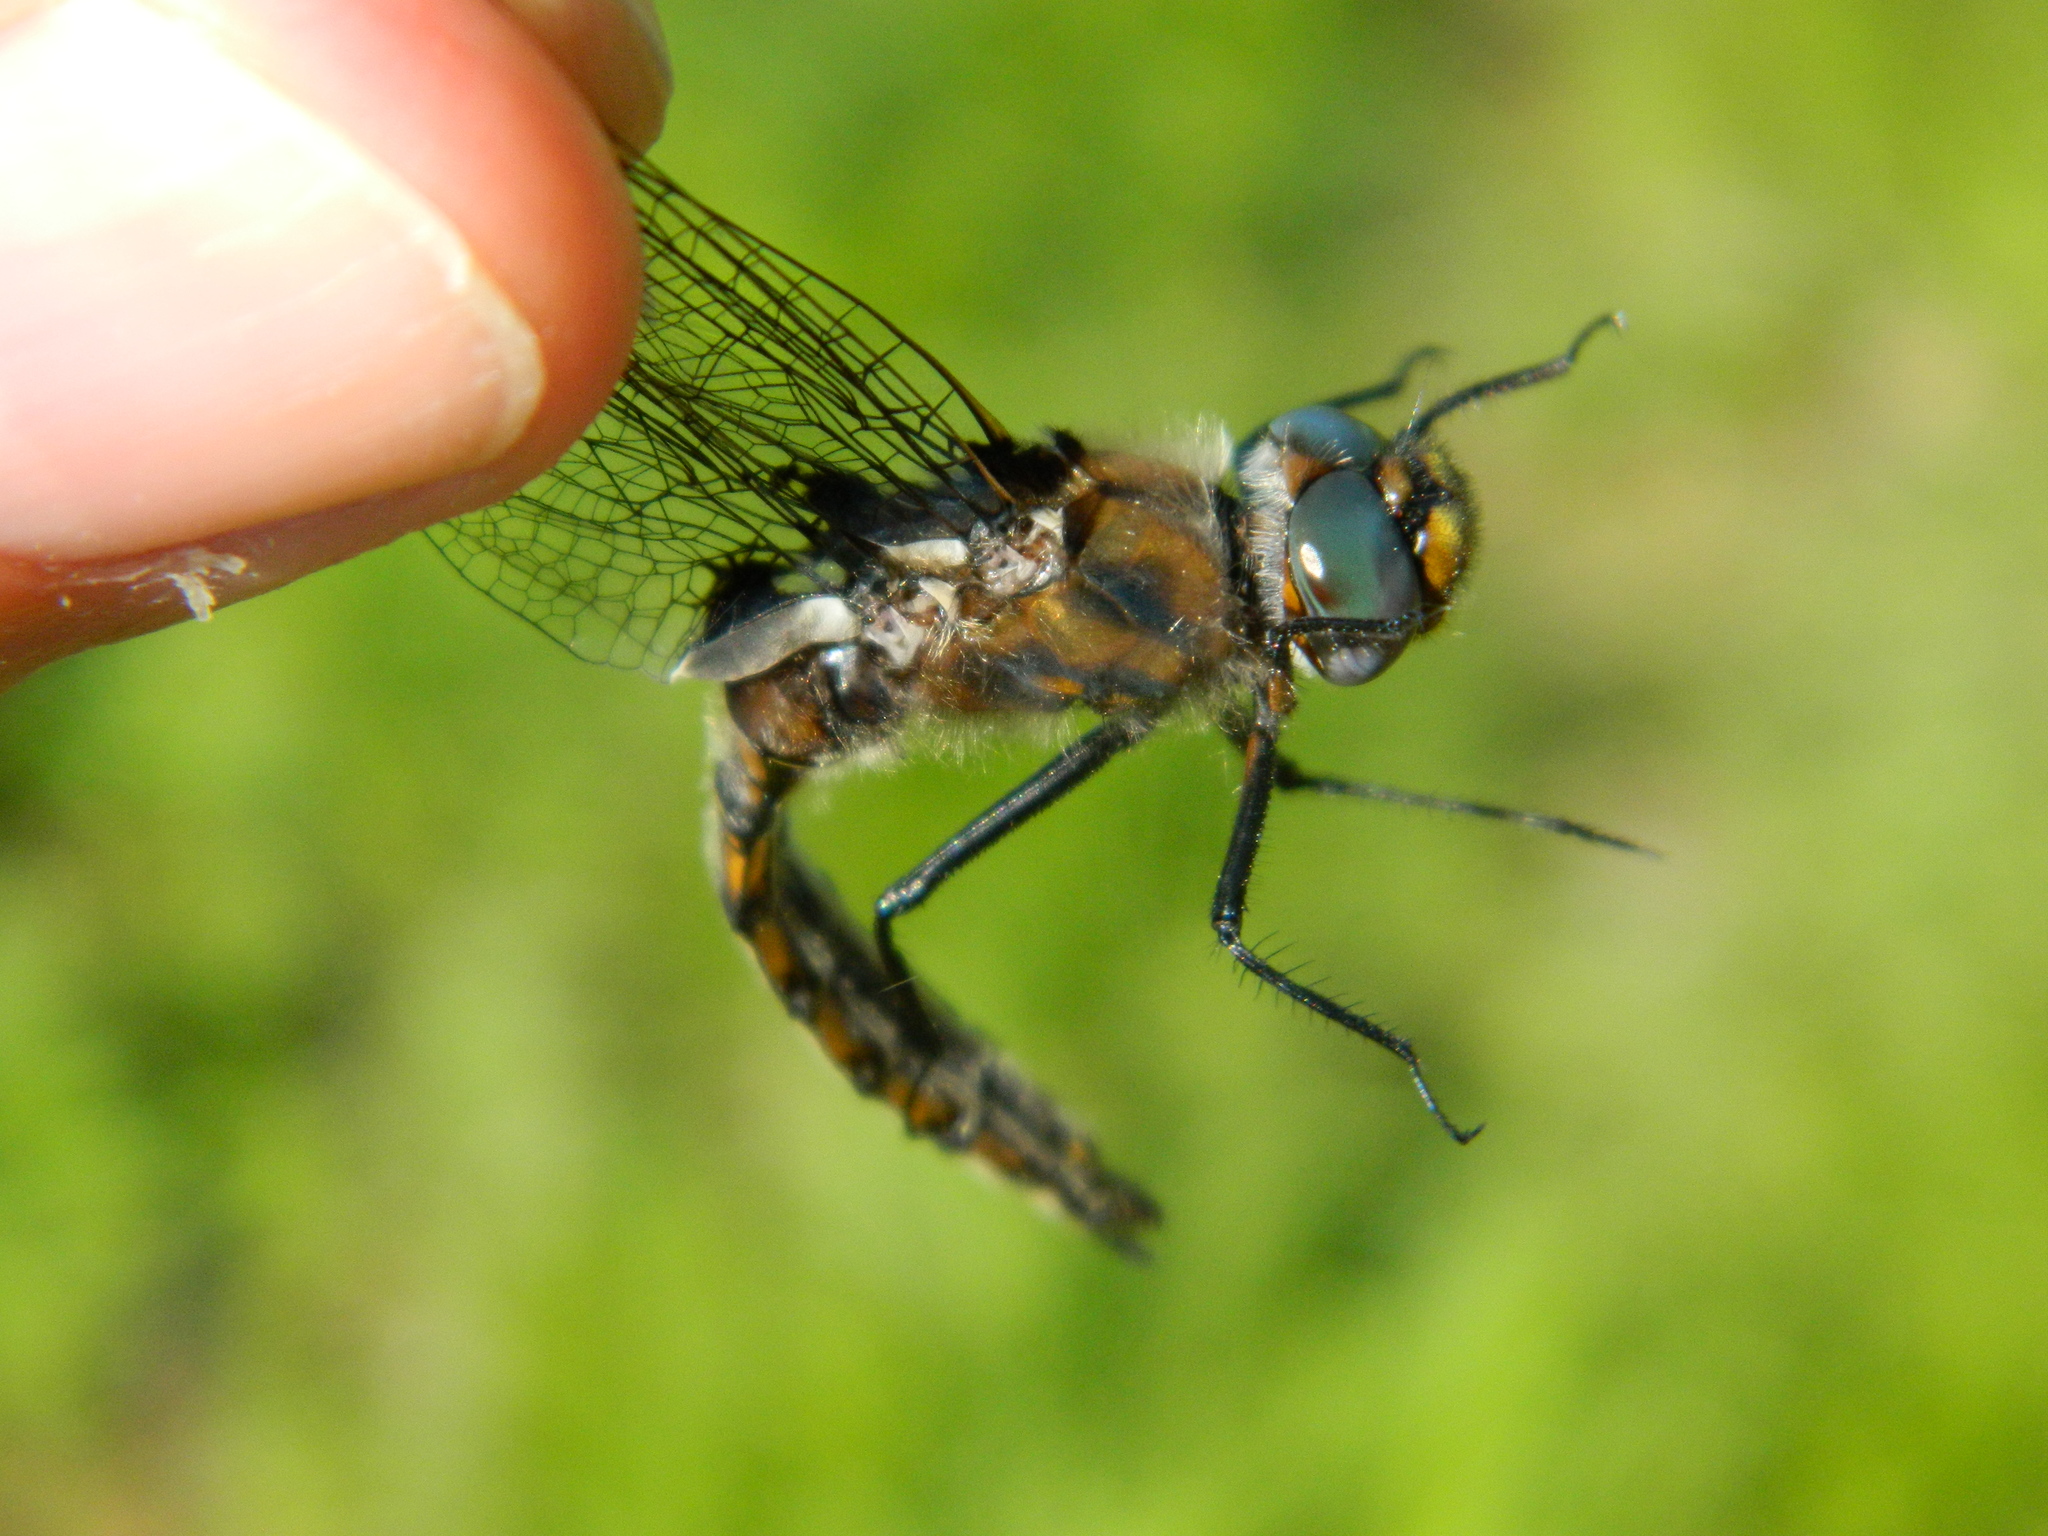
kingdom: Animalia
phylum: Arthropoda
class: Insecta
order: Odonata
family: Corduliidae
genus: Epitheca
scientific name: Epitheca canis
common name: Beaverpond baskettail
